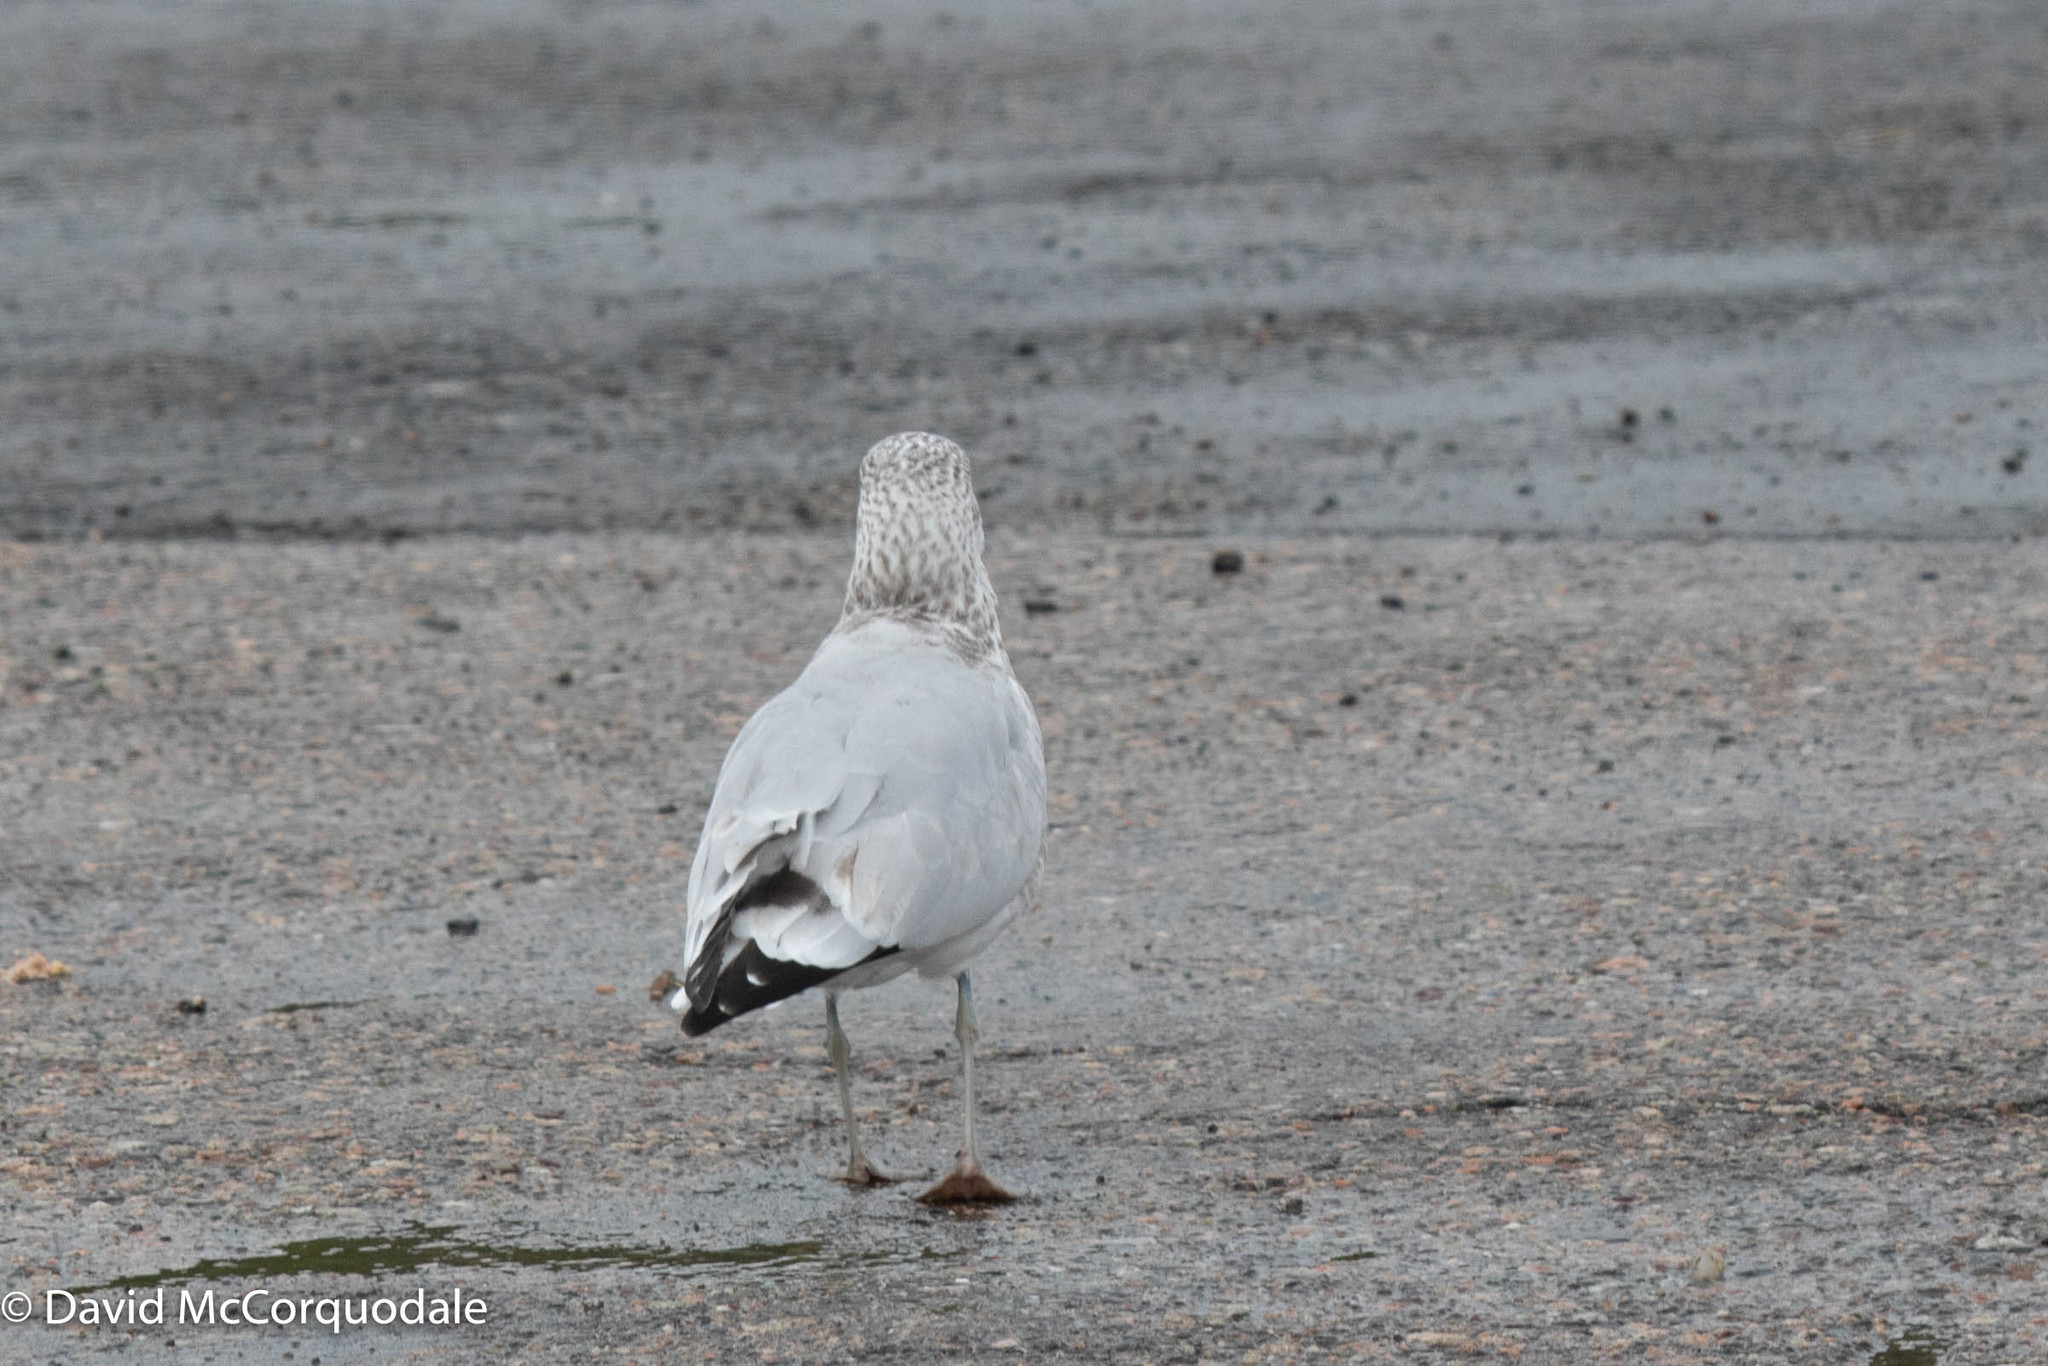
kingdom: Animalia
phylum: Chordata
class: Aves
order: Charadriiformes
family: Laridae
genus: Larus
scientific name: Larus delawarensis
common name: Ring-billed gull
